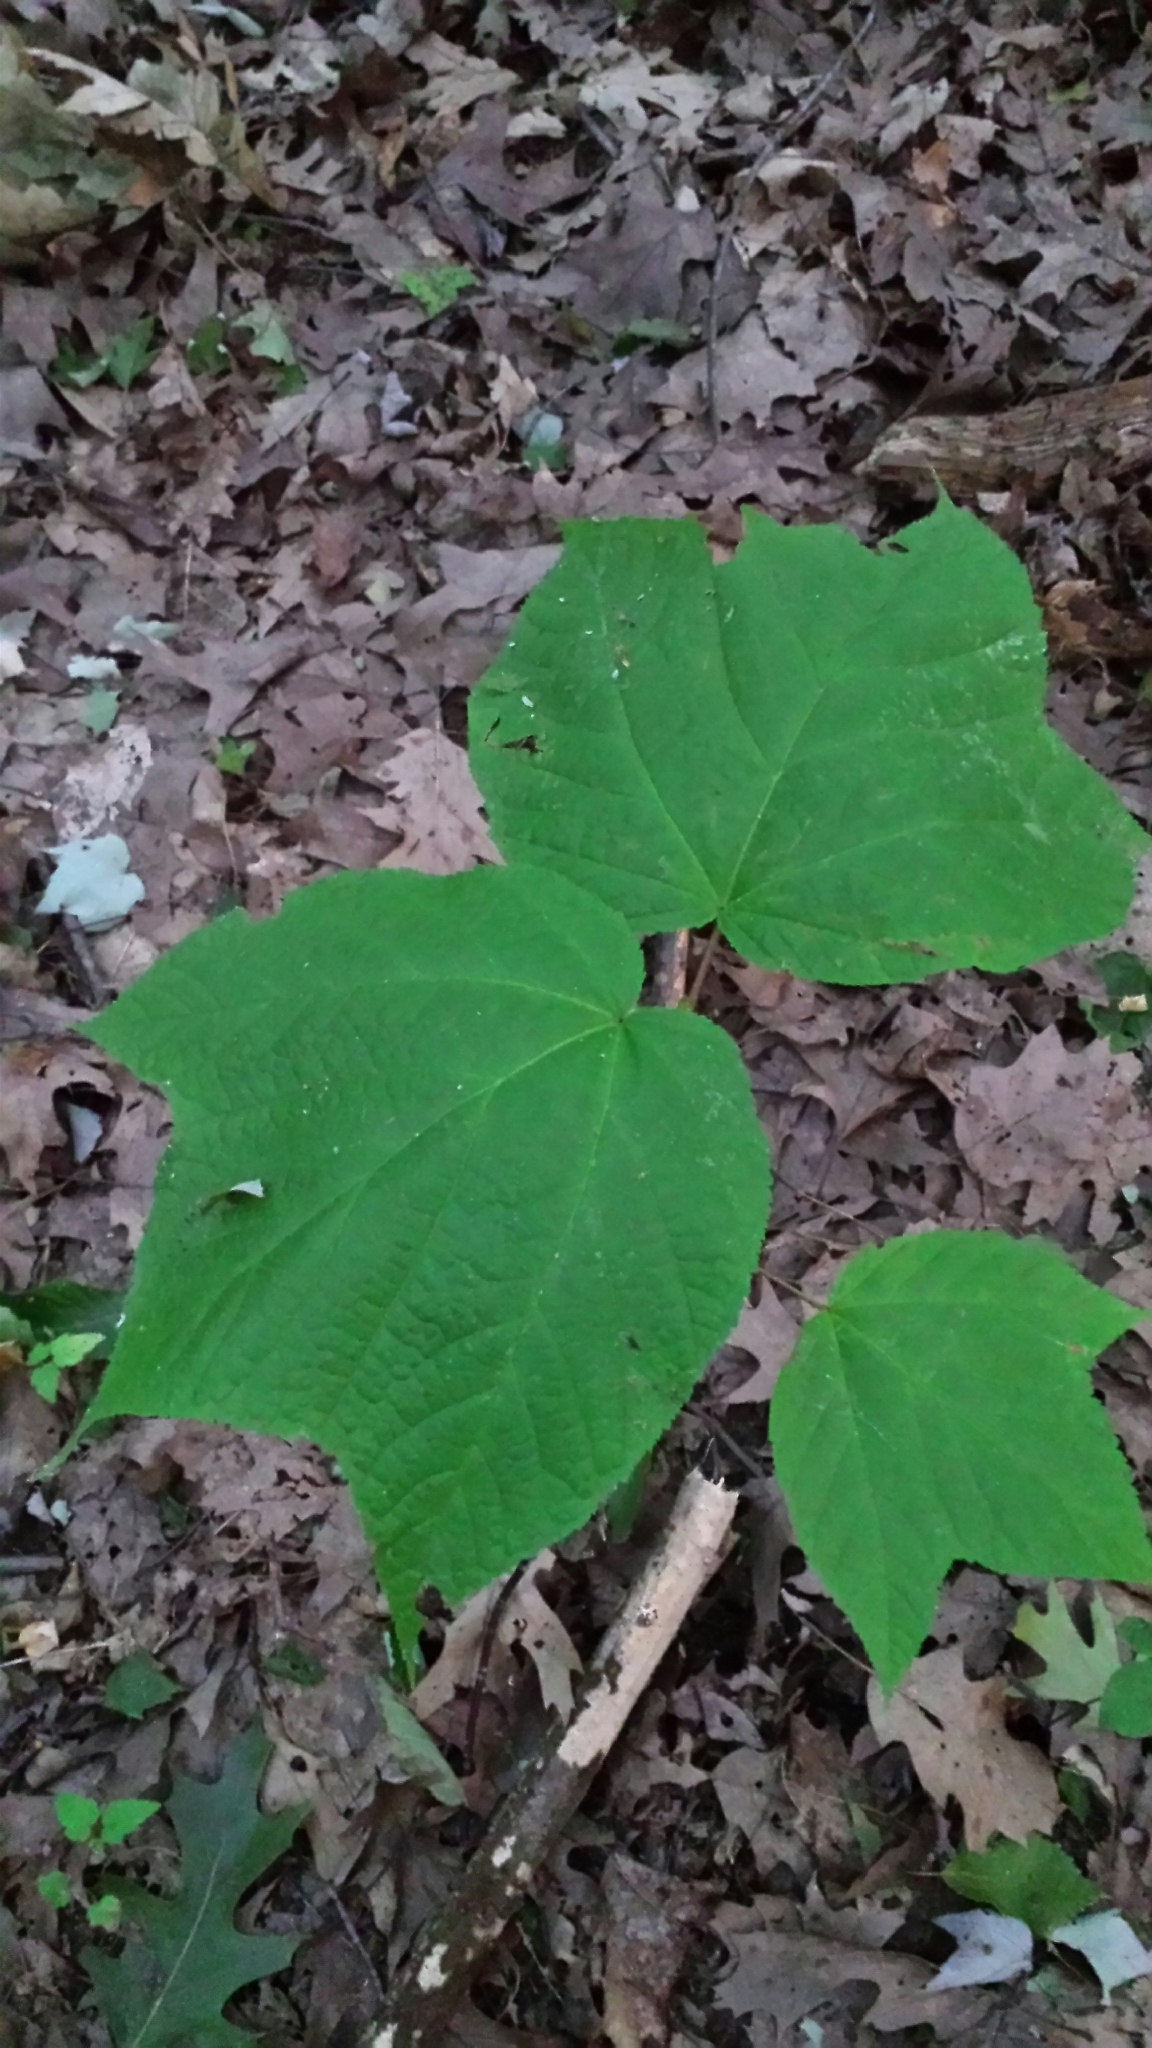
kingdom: Plantae
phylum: Tracheophyta
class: Magnoliopsida
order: Sapindales
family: Sapindaceae
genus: Acer
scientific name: Acer pensylvanicum
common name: Moosewood
